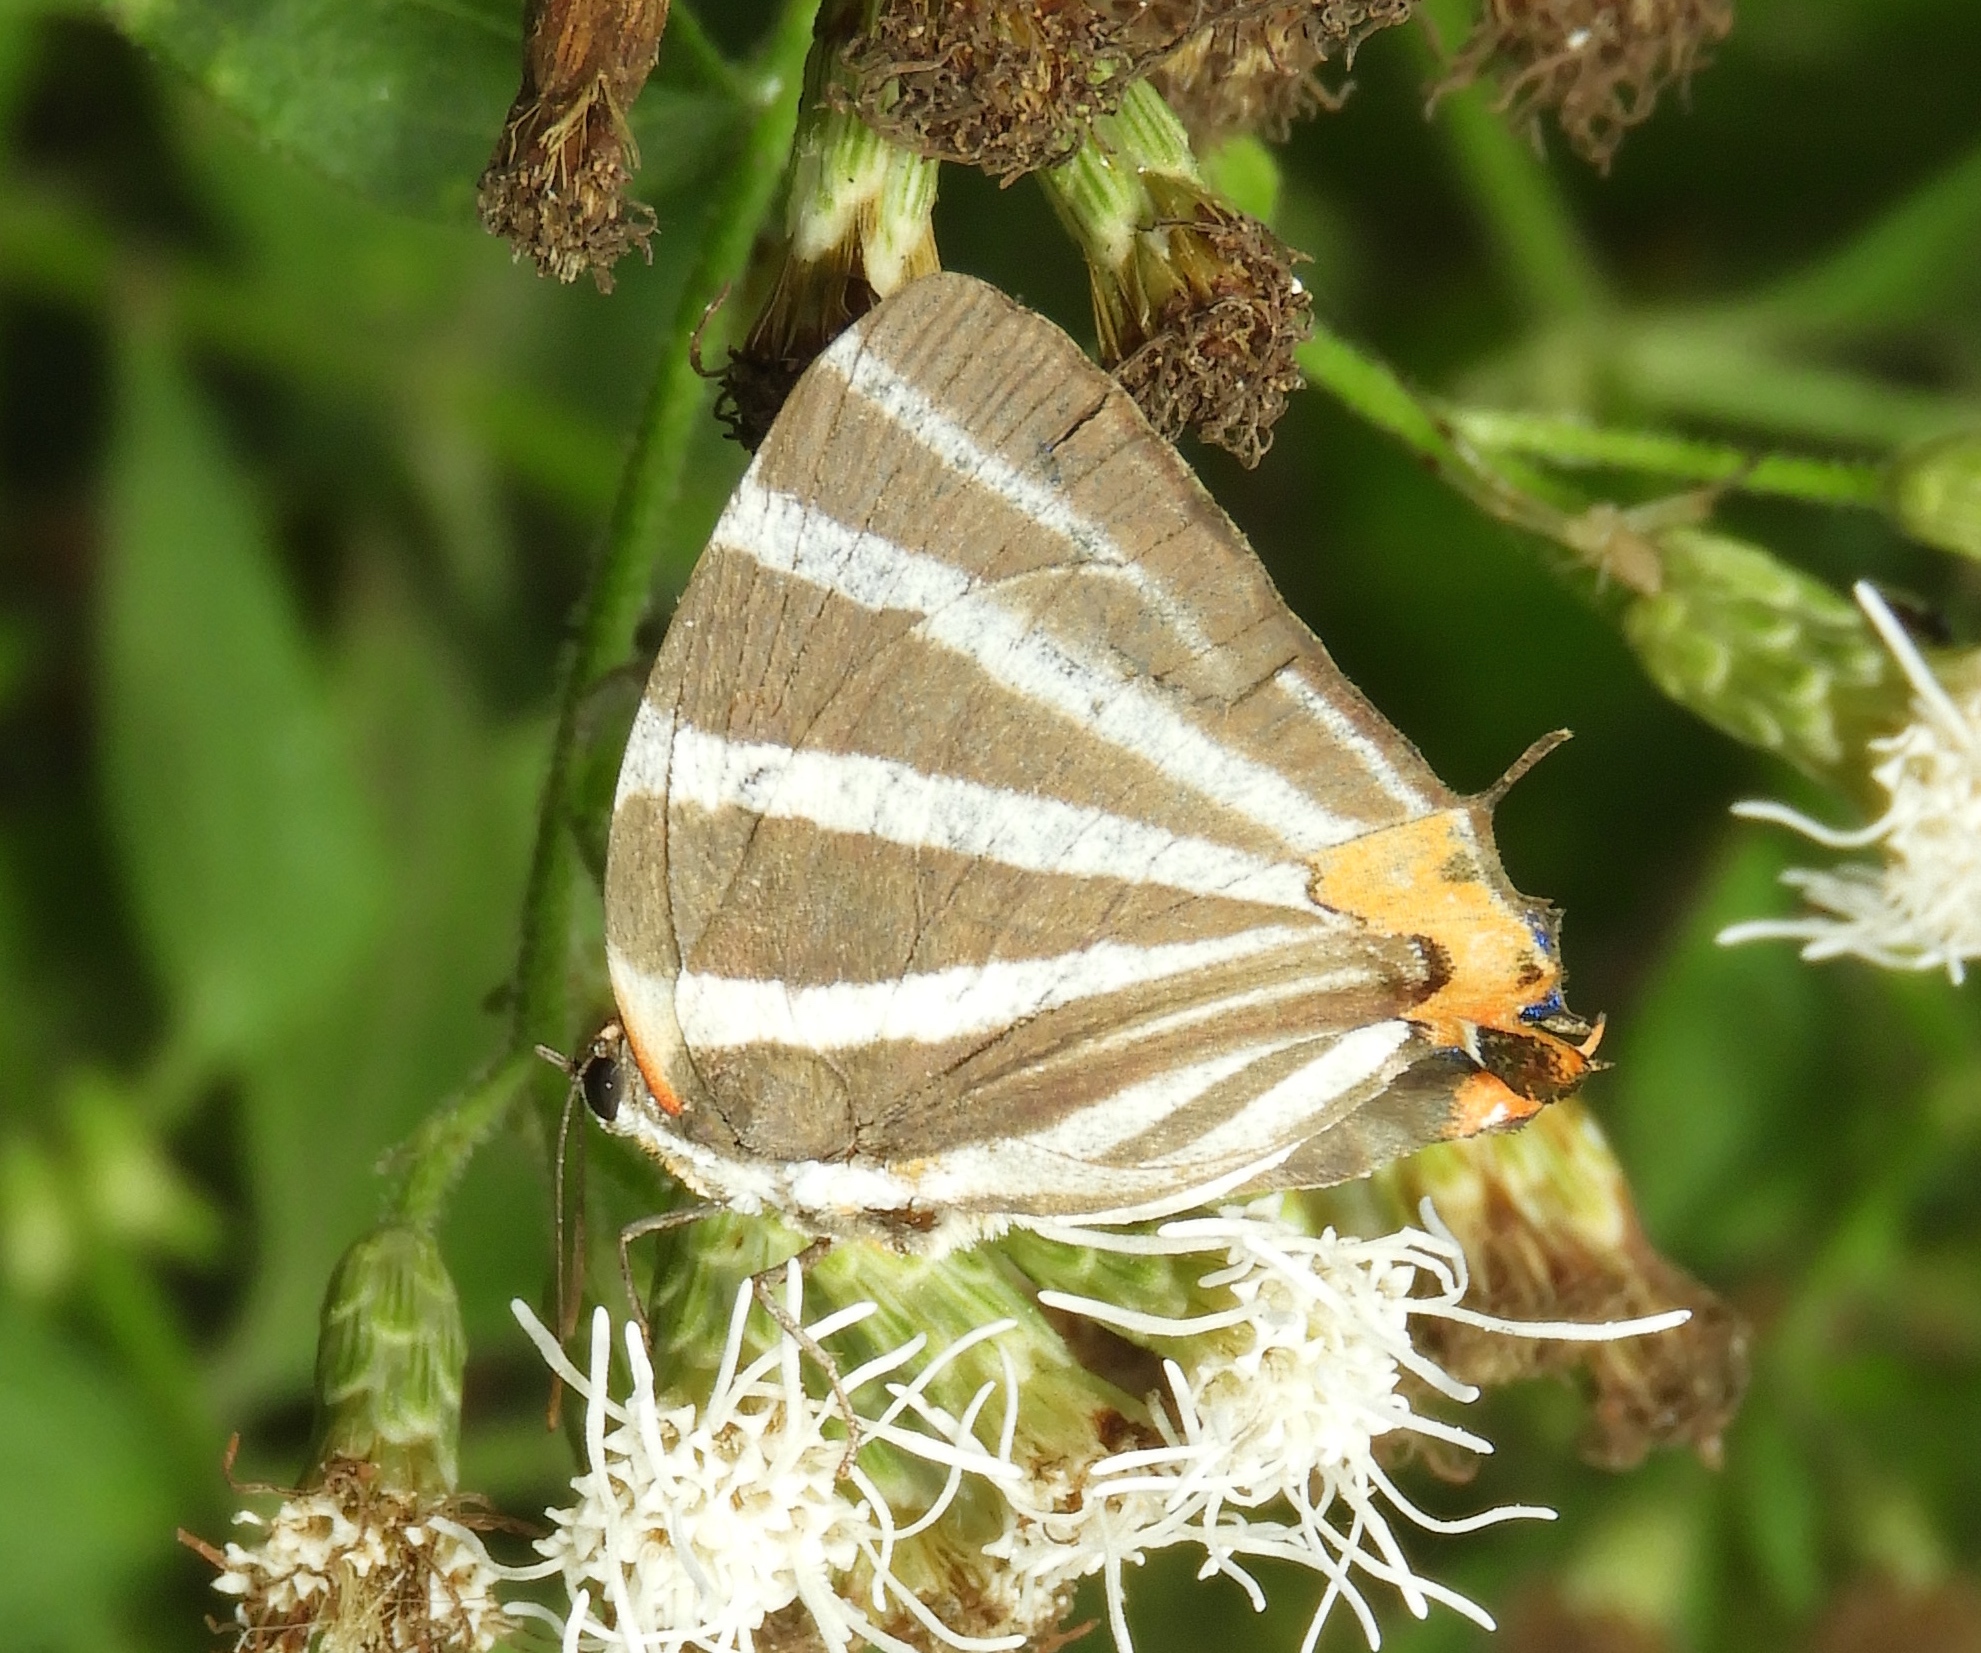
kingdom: Animalia
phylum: Arthropoda
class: Insecta
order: Lepidoptera
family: Lycaenidae
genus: Thecla
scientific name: Thecla bathildis
